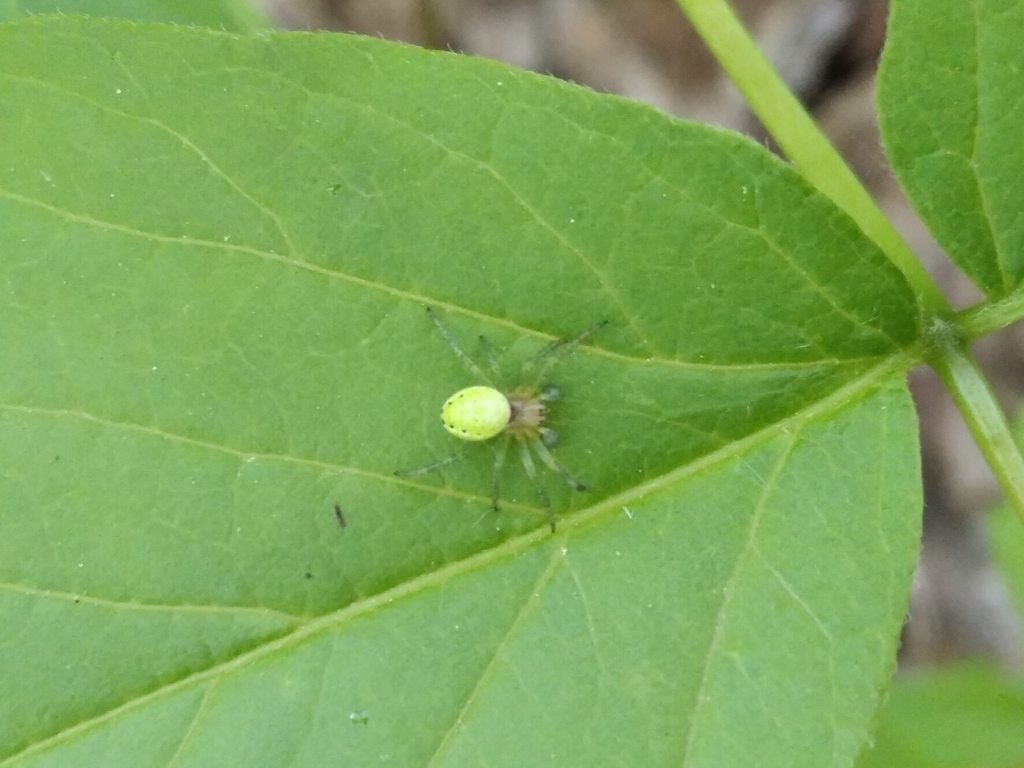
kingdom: Animalia
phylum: Arthropoda
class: Arachnida
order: Araneae
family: Araneidae
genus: Araniella
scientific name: Araniella cucurbitina
